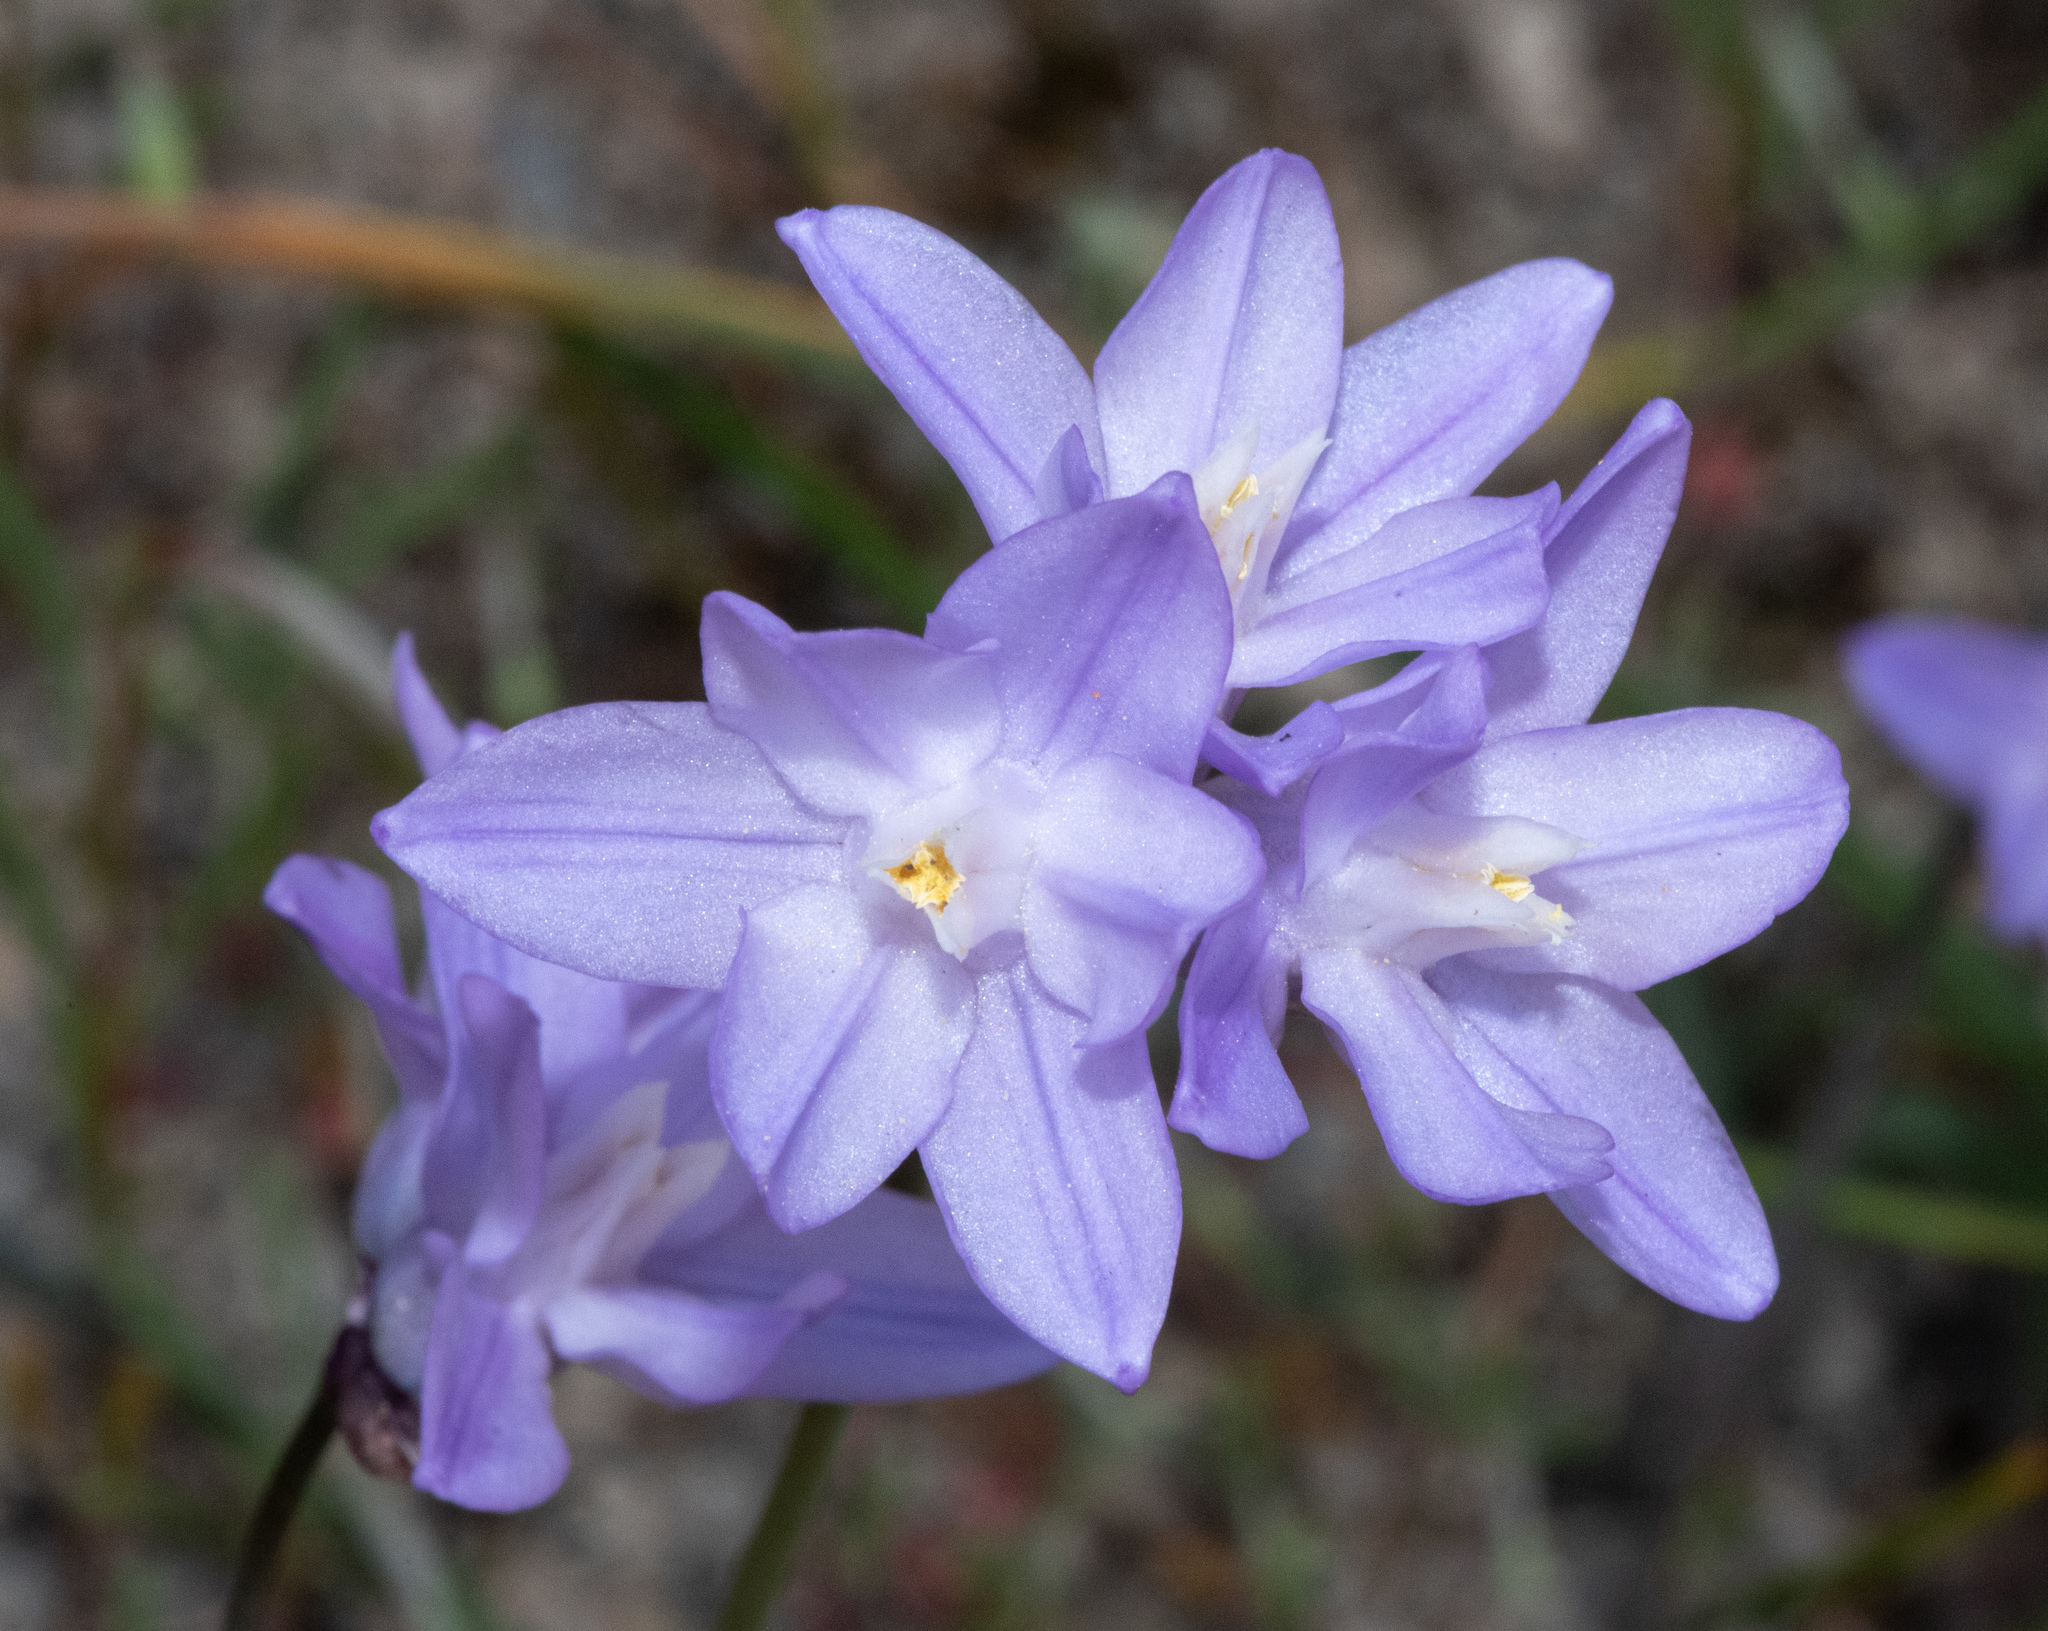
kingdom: Plantae
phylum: Tracheophyta
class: Liliopsida
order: Asparagales
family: Asparagaceae
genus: Dipterostemon
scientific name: Dipterostemon capitatus
